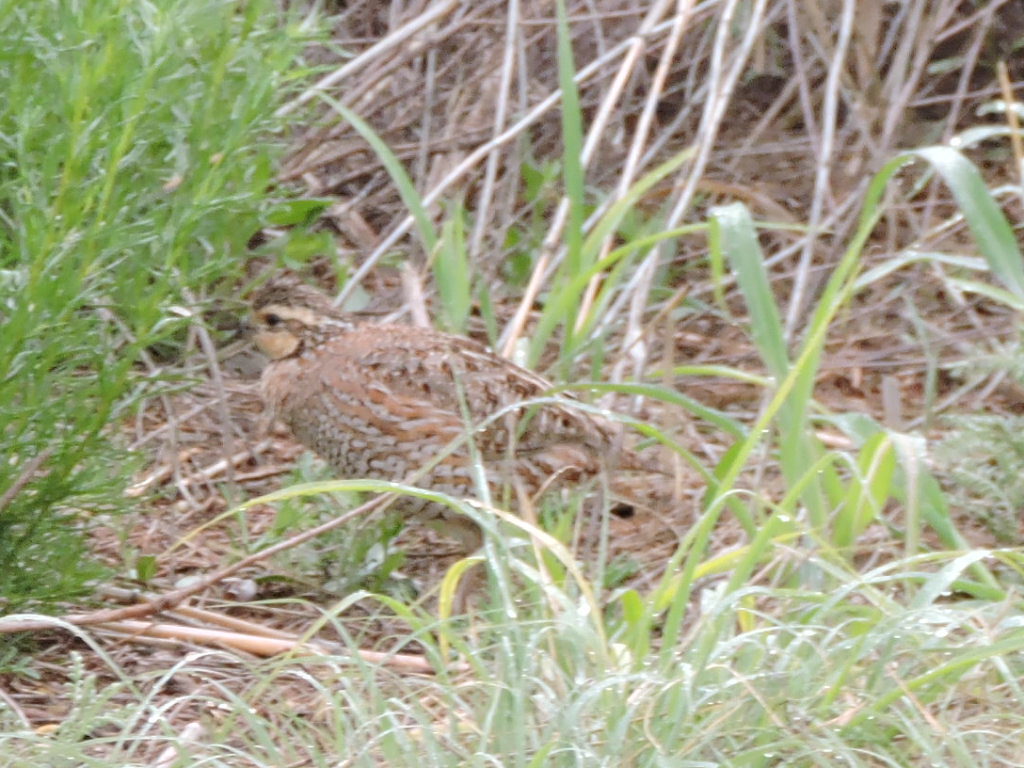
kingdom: Animalia
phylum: Chordata
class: Aves
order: Galliformes
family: Odontophoridae
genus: Colinus
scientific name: Colinus virginianus
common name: Northern bobwhite
